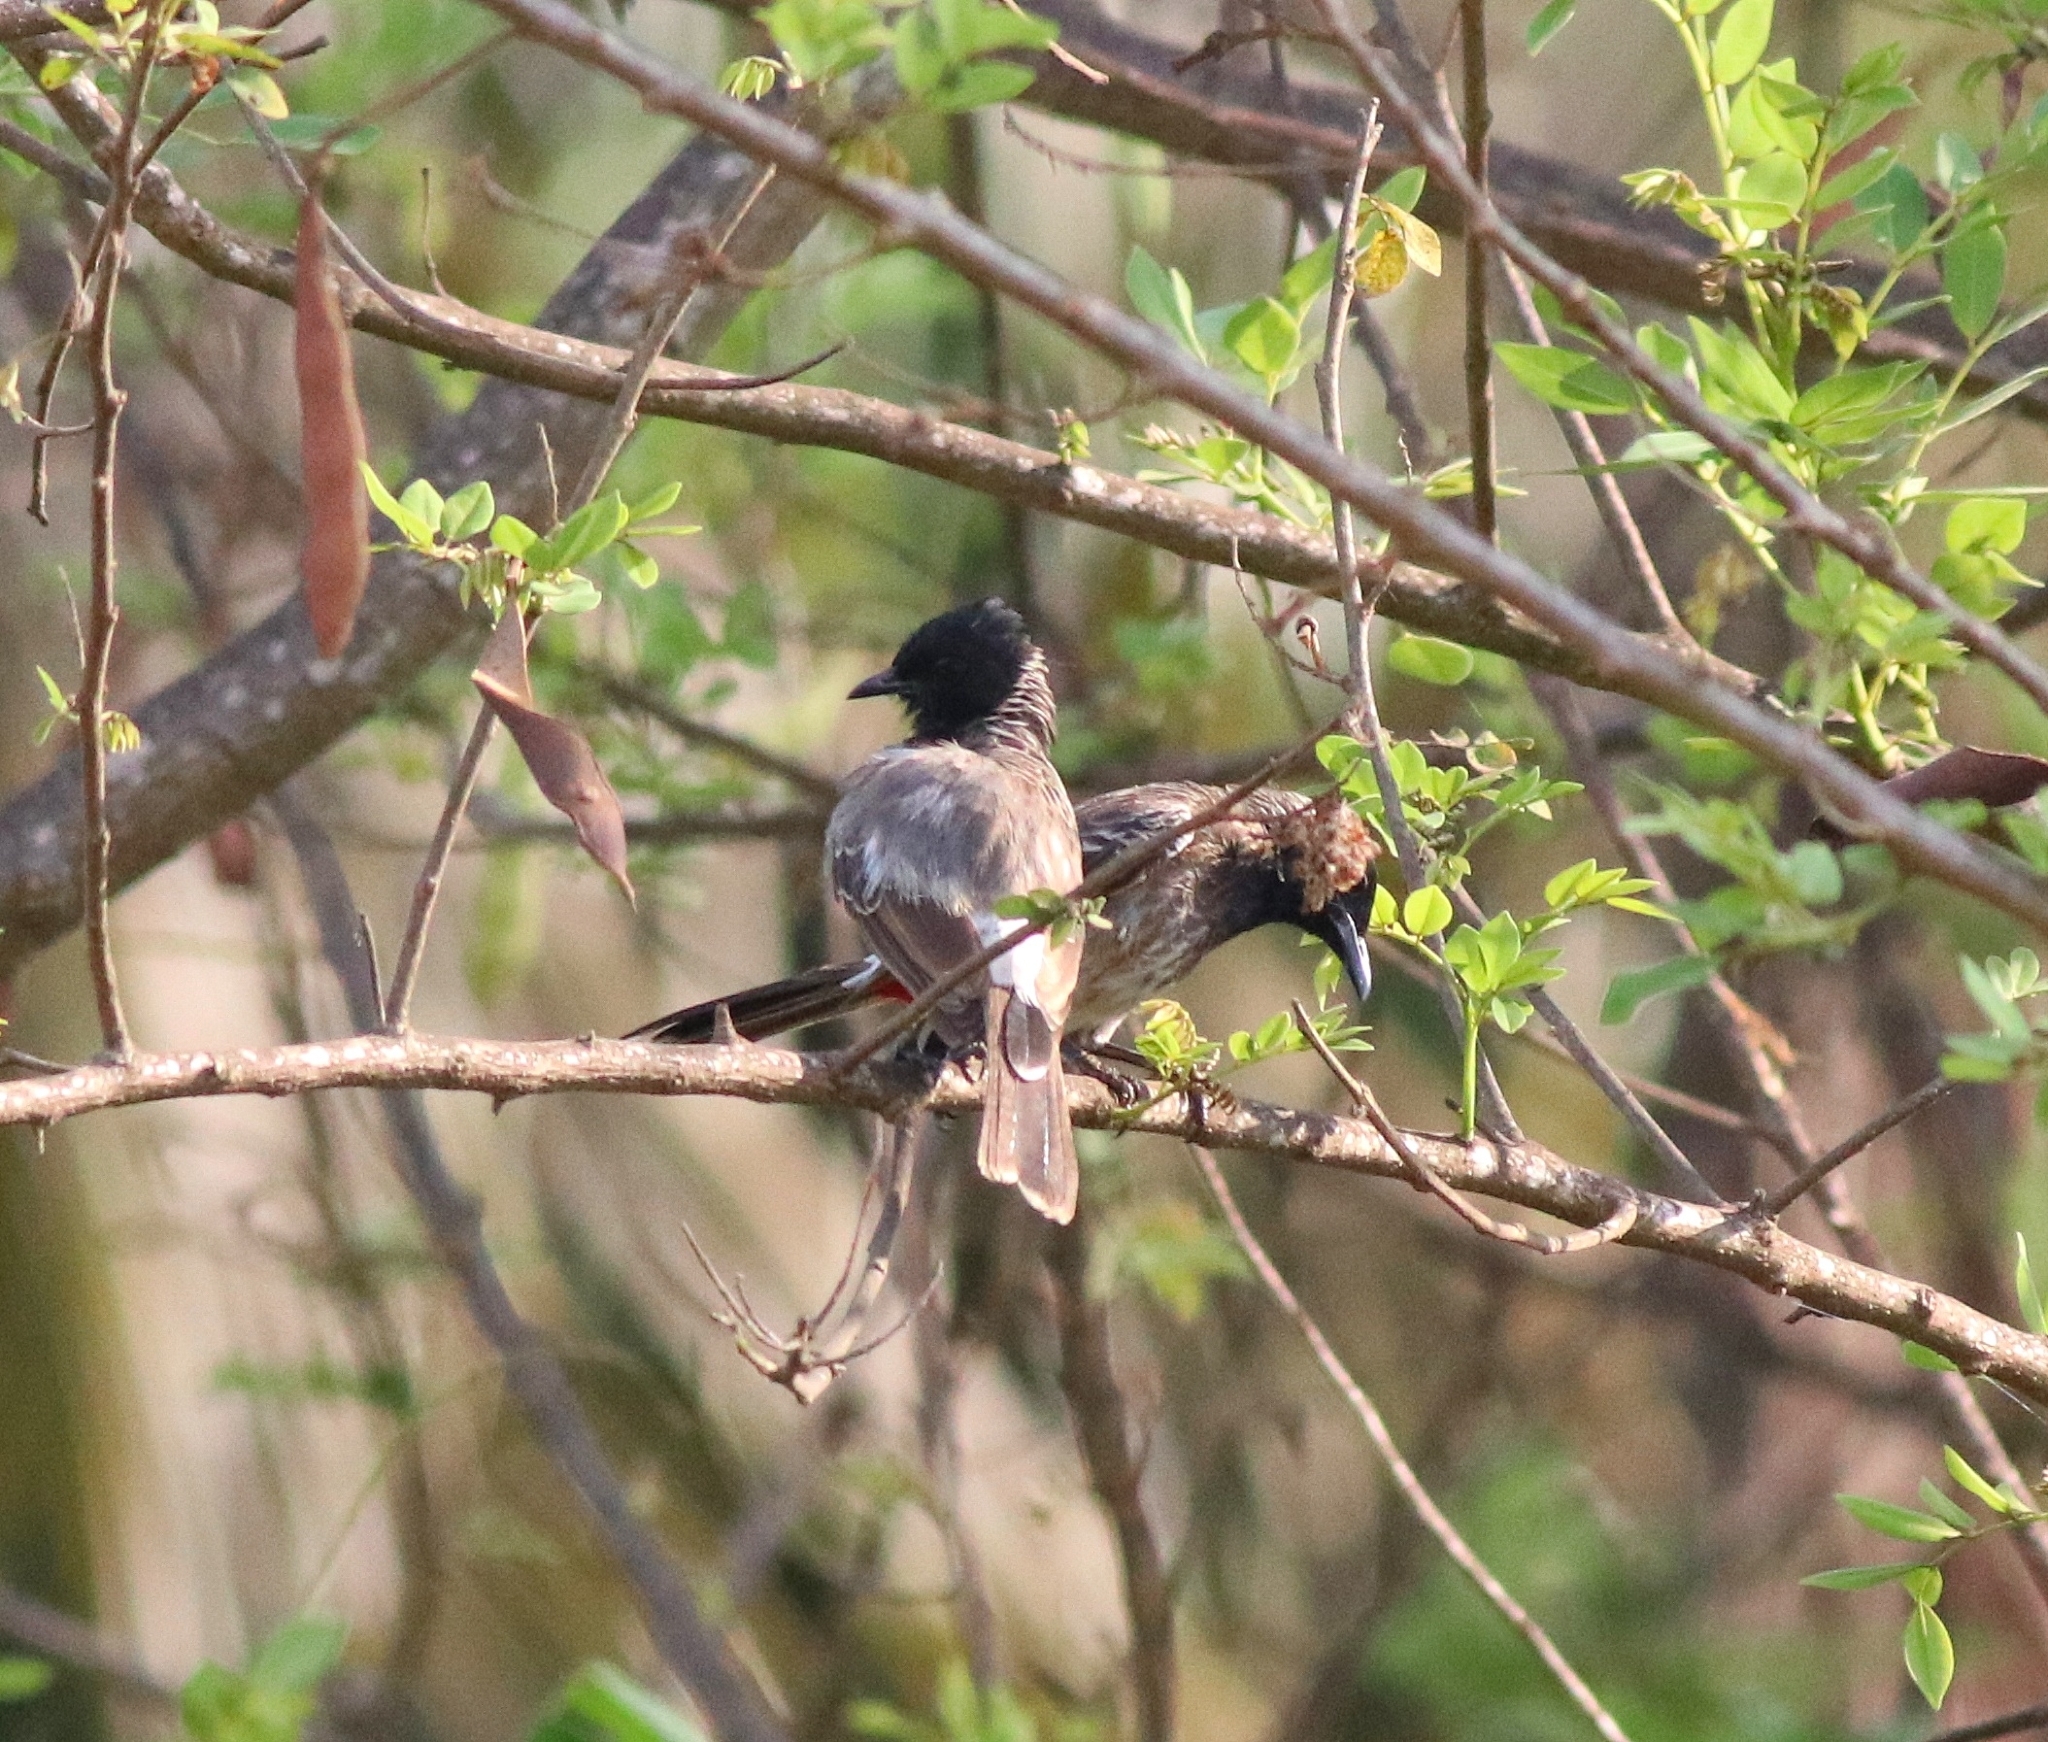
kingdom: Animalia
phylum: Chordata
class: Aves
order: Passeriformes
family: Pycnonotidae
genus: Pycnonotus
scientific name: Pycnonotus cafer
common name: Red-vented bulbul
